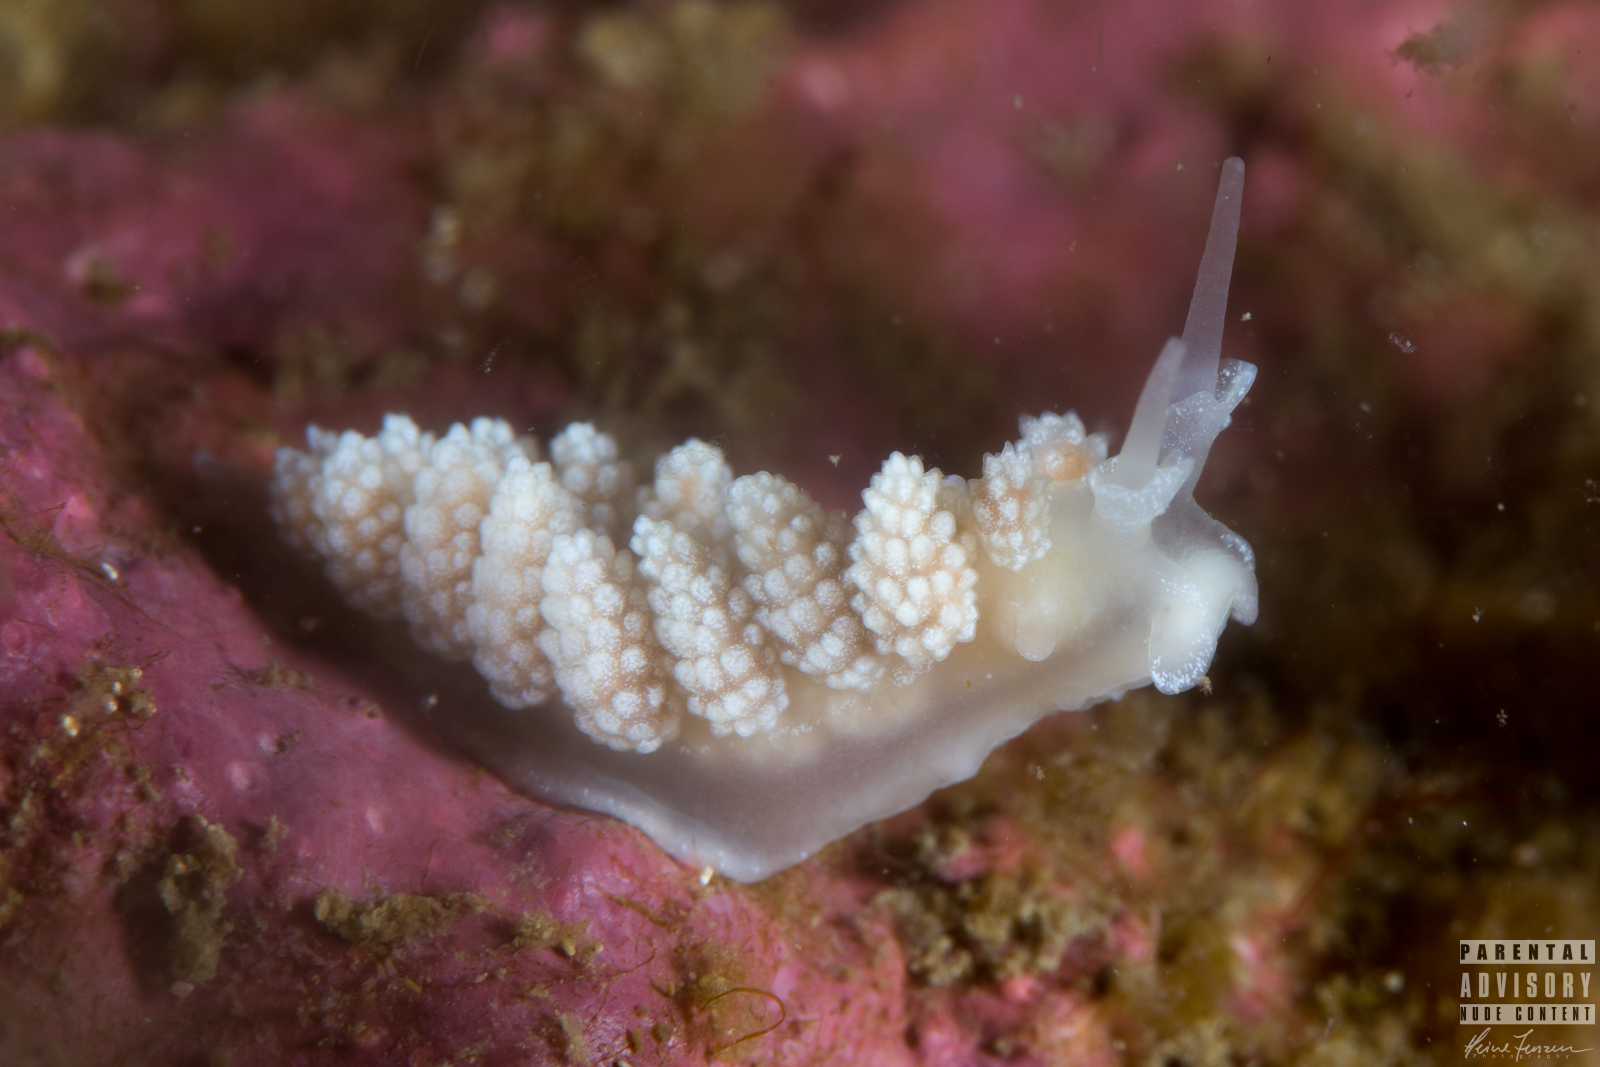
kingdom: Animalia
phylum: Mollusca
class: Gastropoda
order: Nudibranchia
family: Dotidae
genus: Doto
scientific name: Doto fragilis
